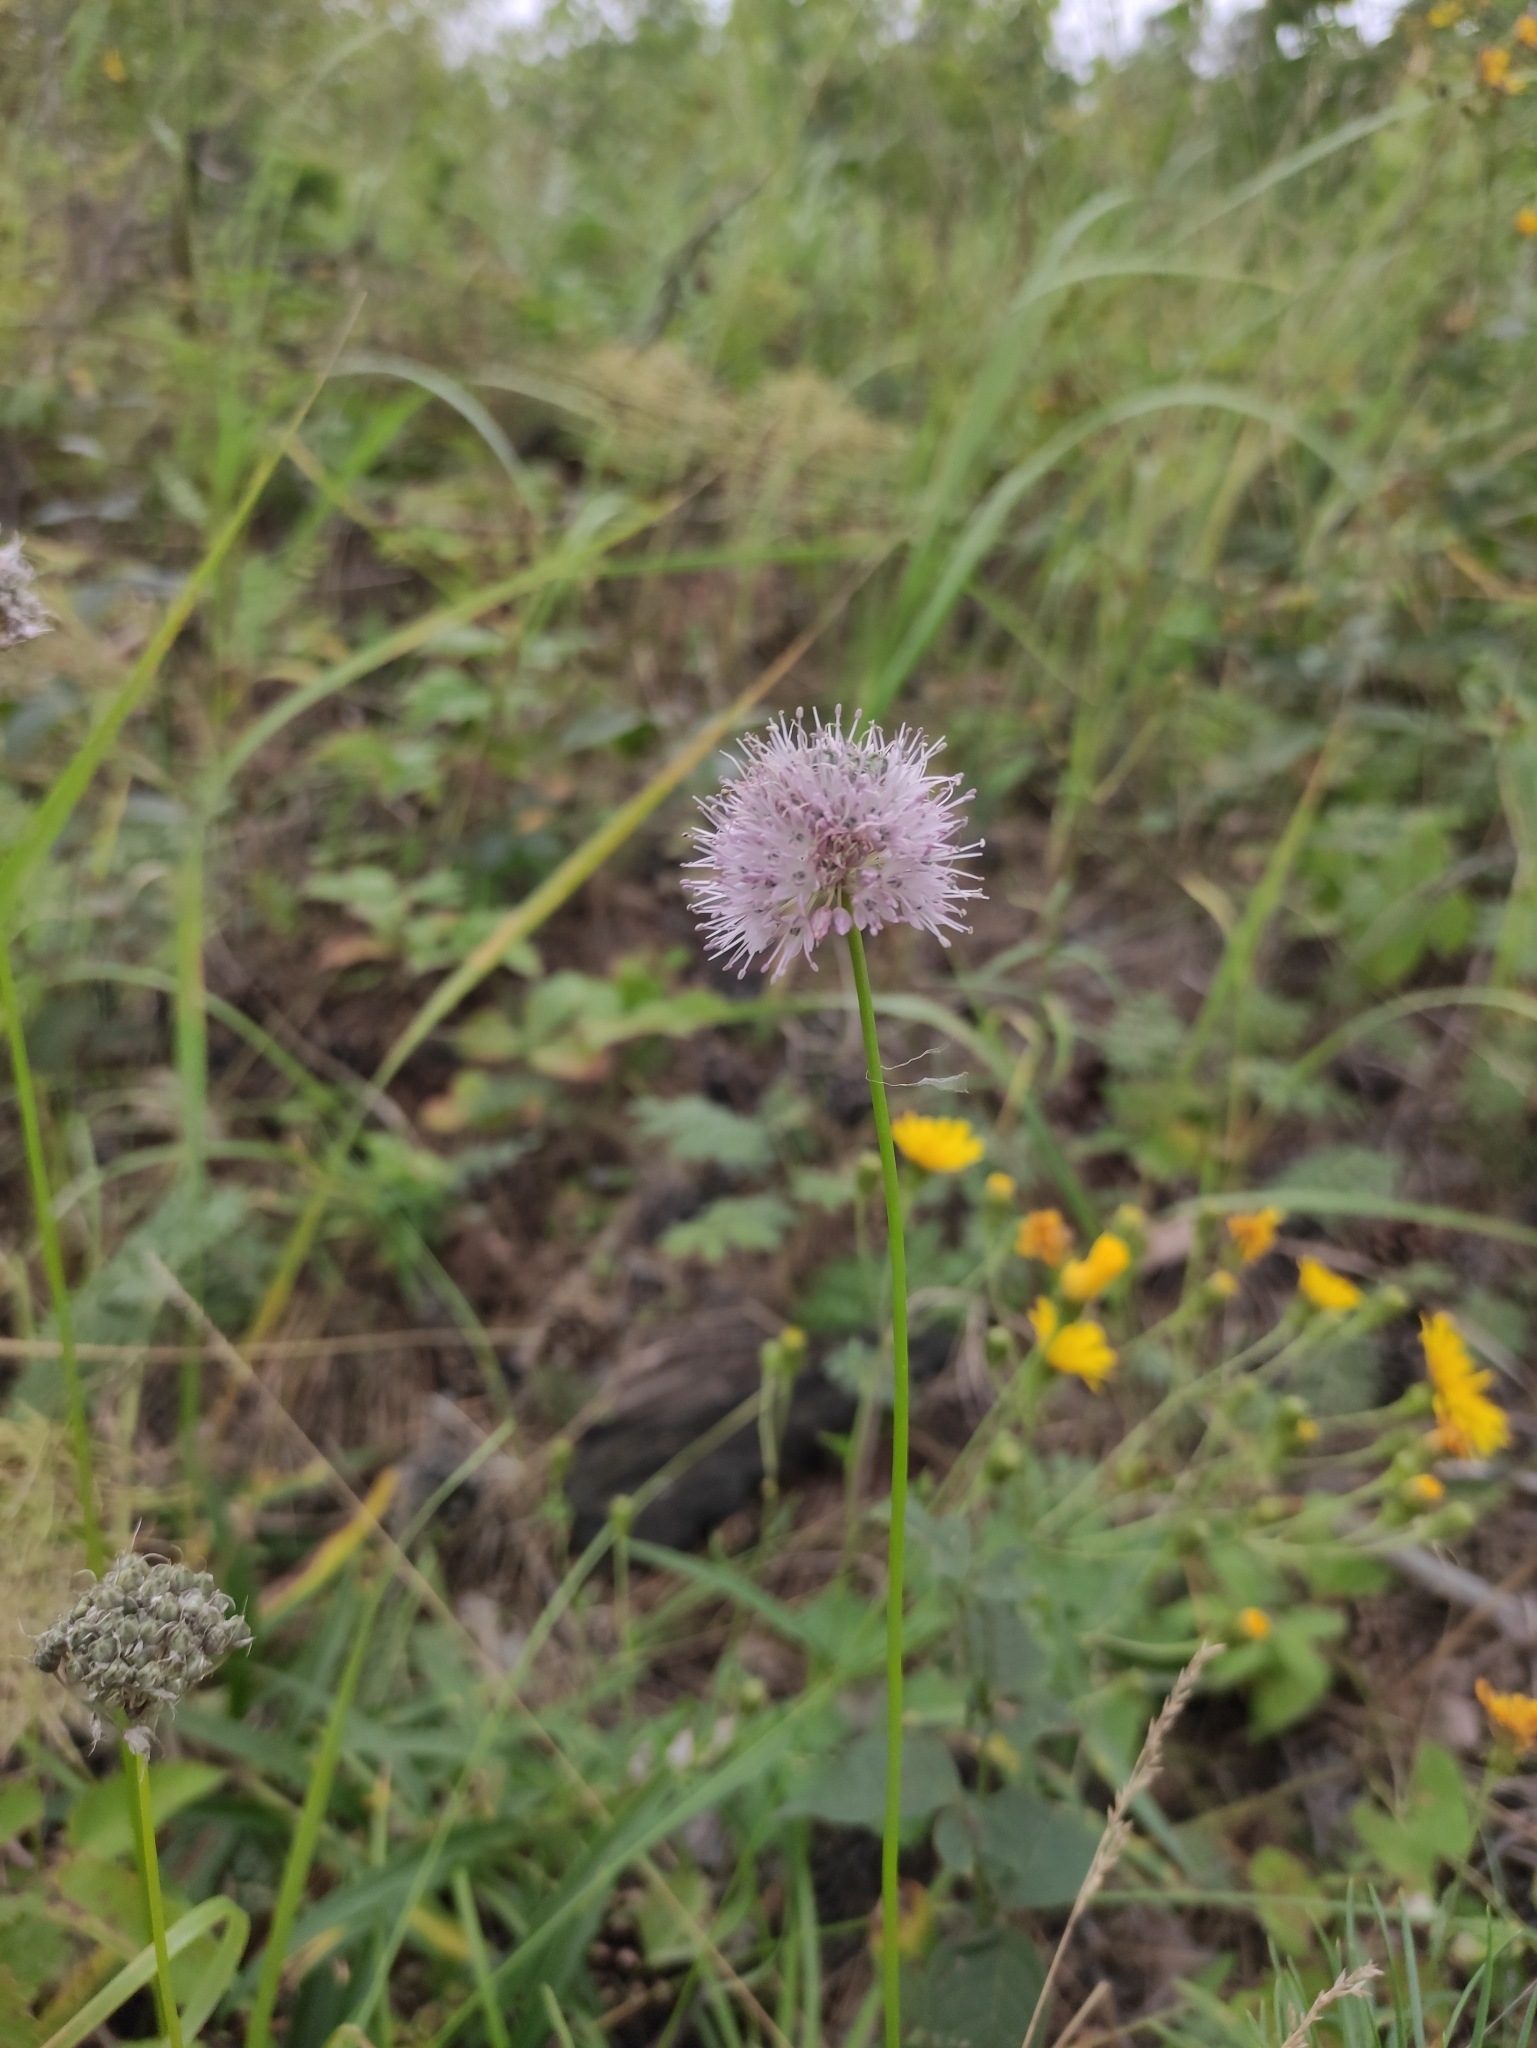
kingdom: Plantae
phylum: Tracheophyta
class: Liliopsida
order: Asparagales
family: Amaryllidaceae
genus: Allium
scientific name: Allium splendens
